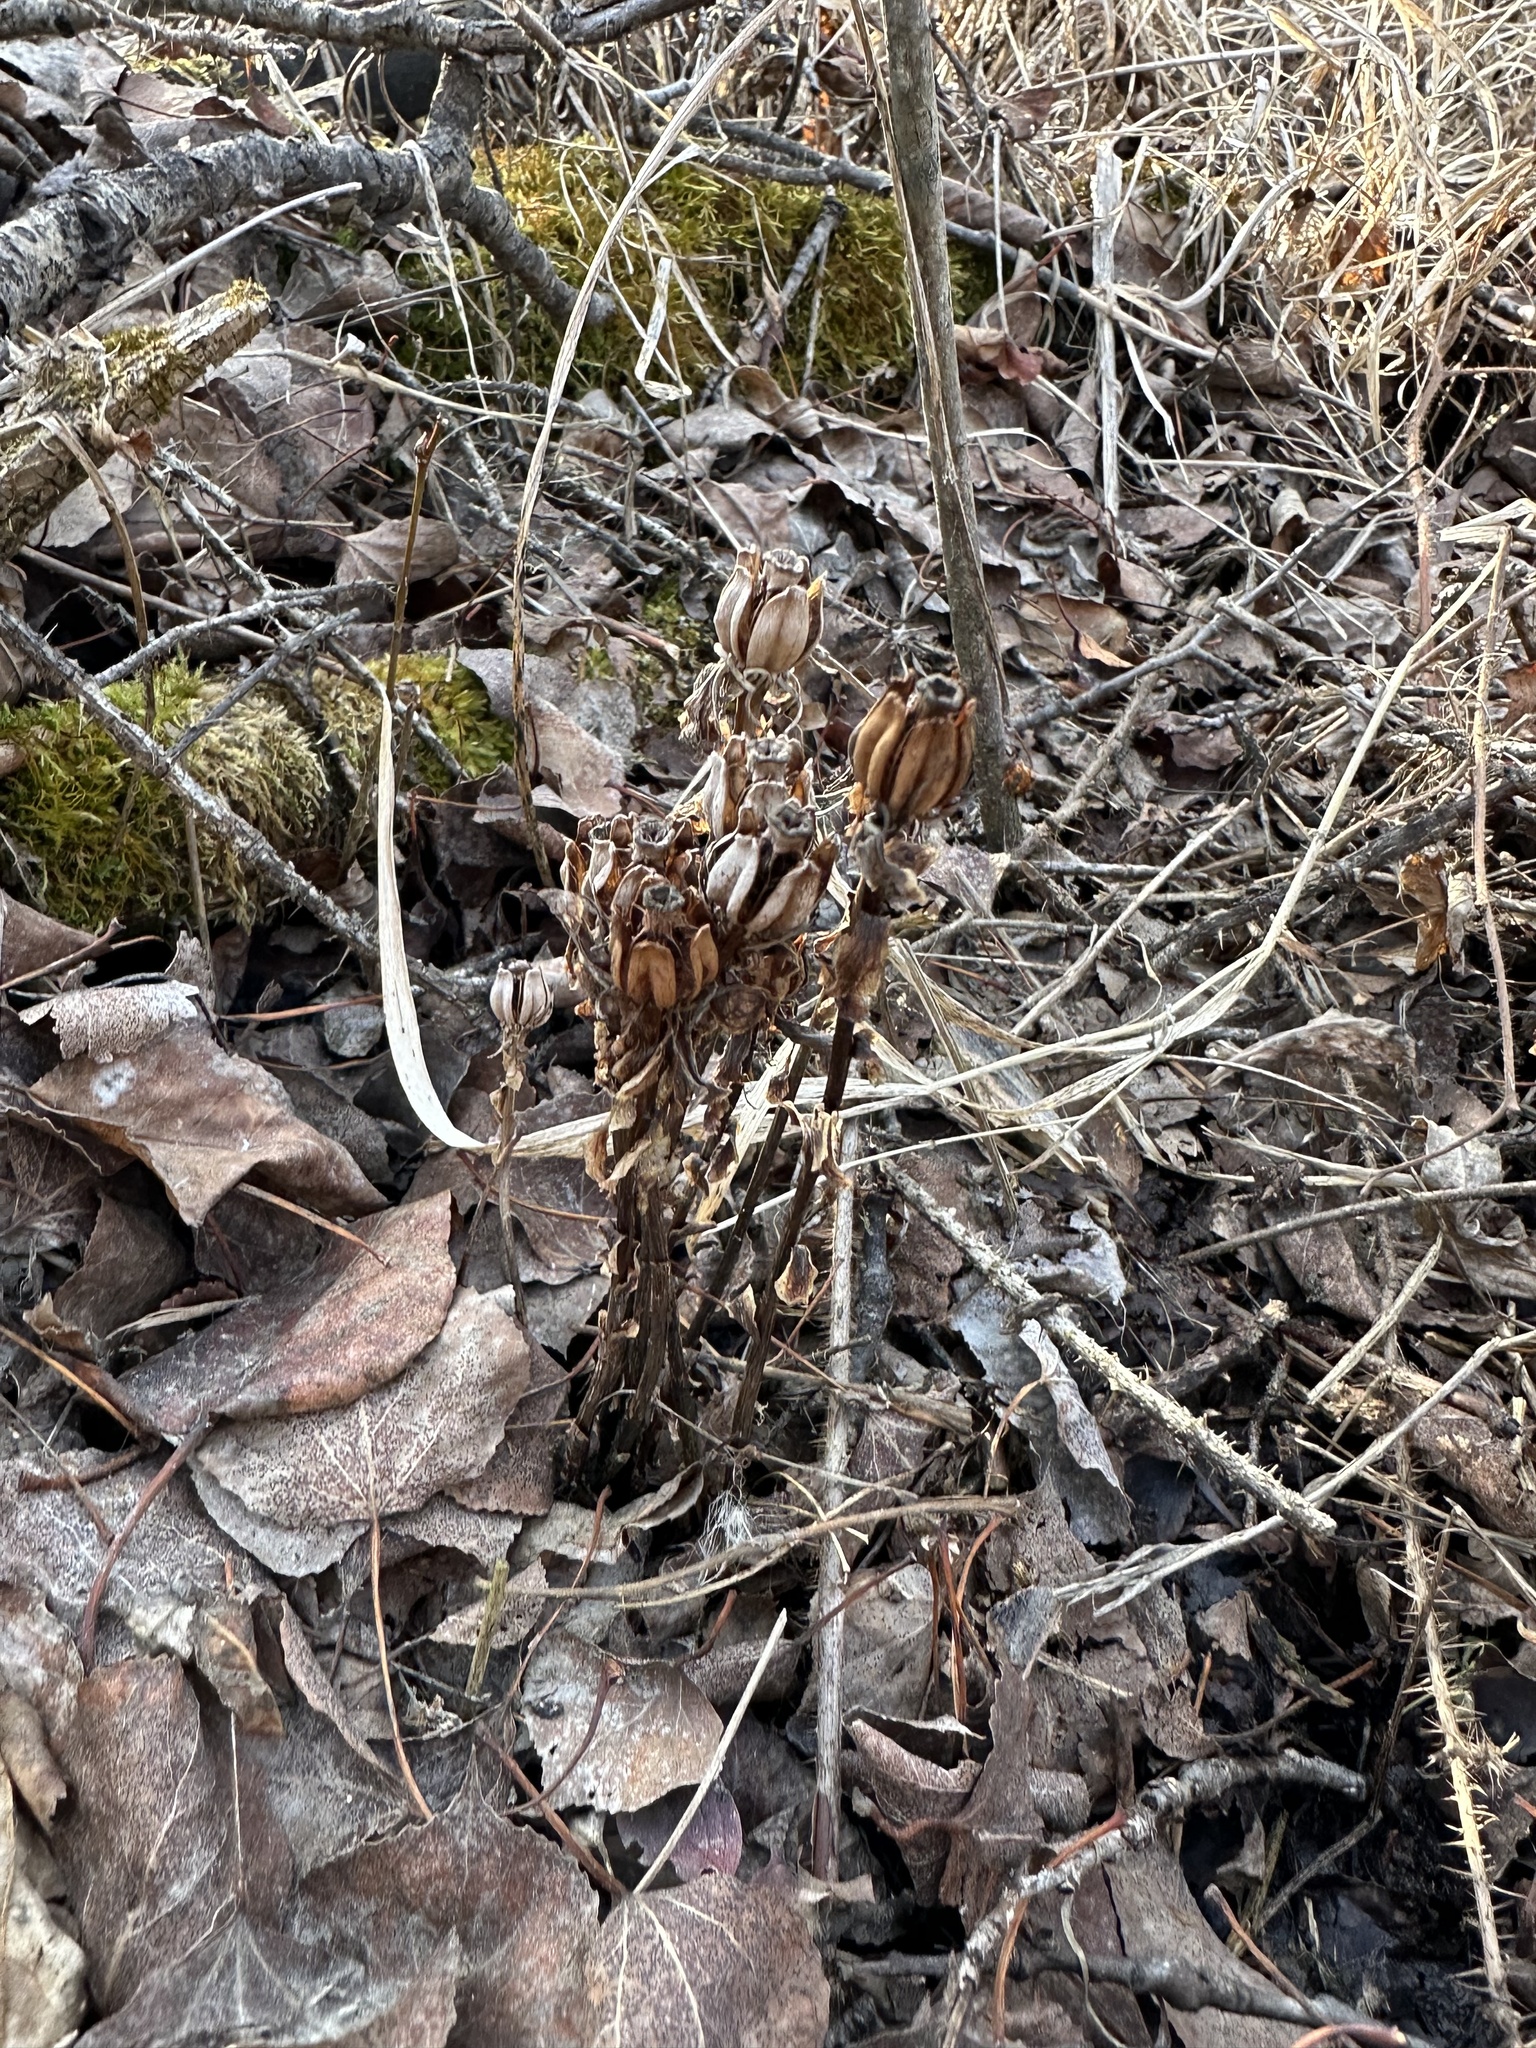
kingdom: Plantae
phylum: Tracheophyta
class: Magnoliopsida
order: Ericales
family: Ericaceae
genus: Monotropa
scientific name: Monotropa uniflora
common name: Convulsion root
